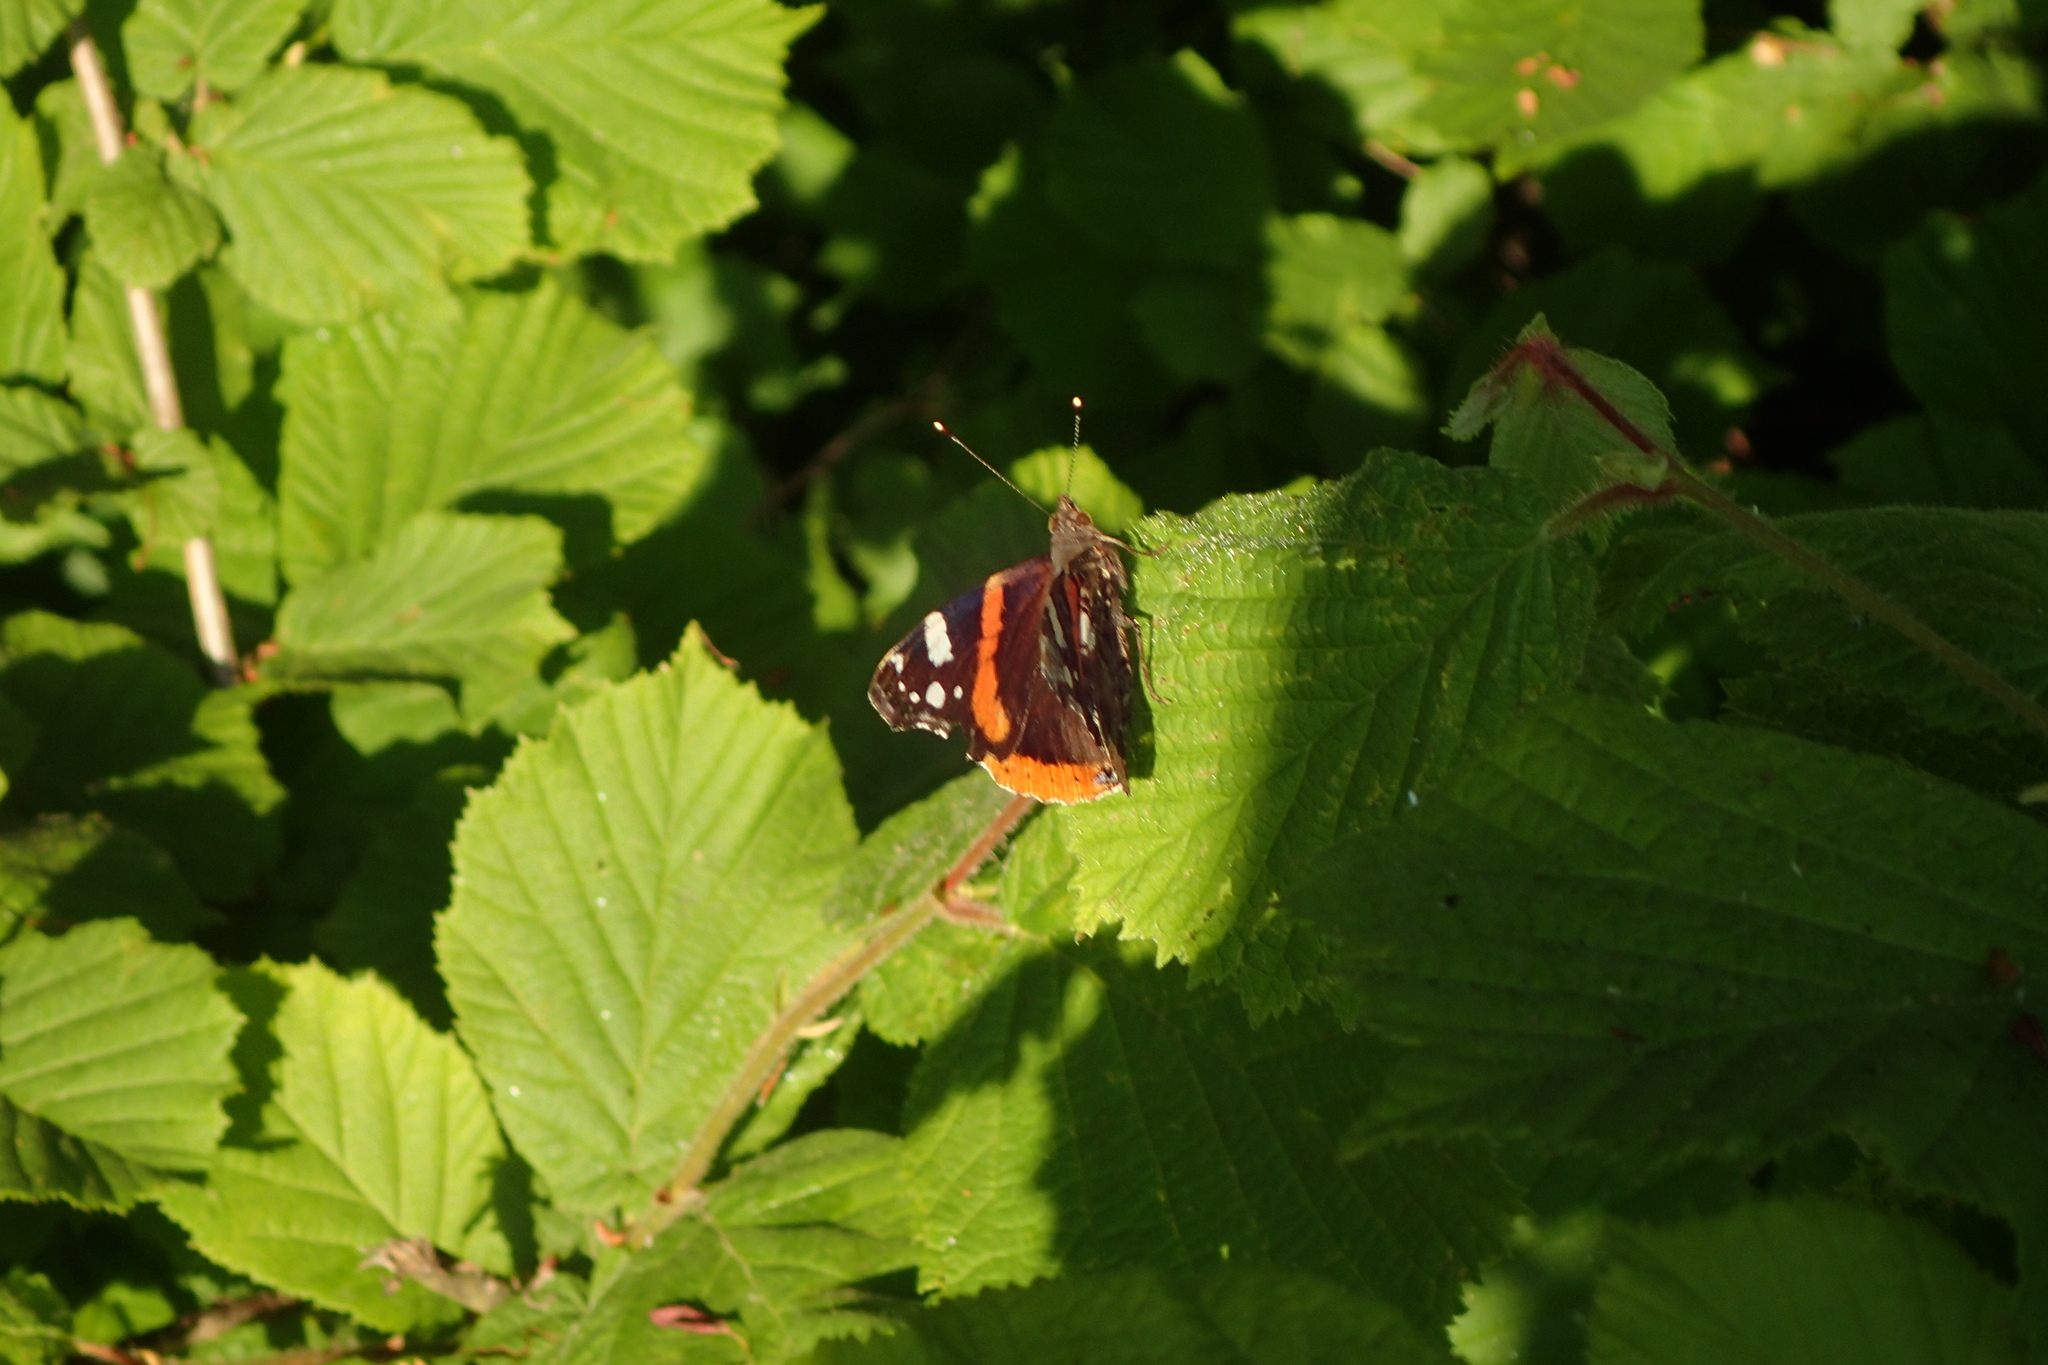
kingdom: Animalia
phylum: Arthropoda
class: Insecta
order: Lepidoptera
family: Nymphalidae
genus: Vanessa
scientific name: Vanessa atalanta
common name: Red admiral
